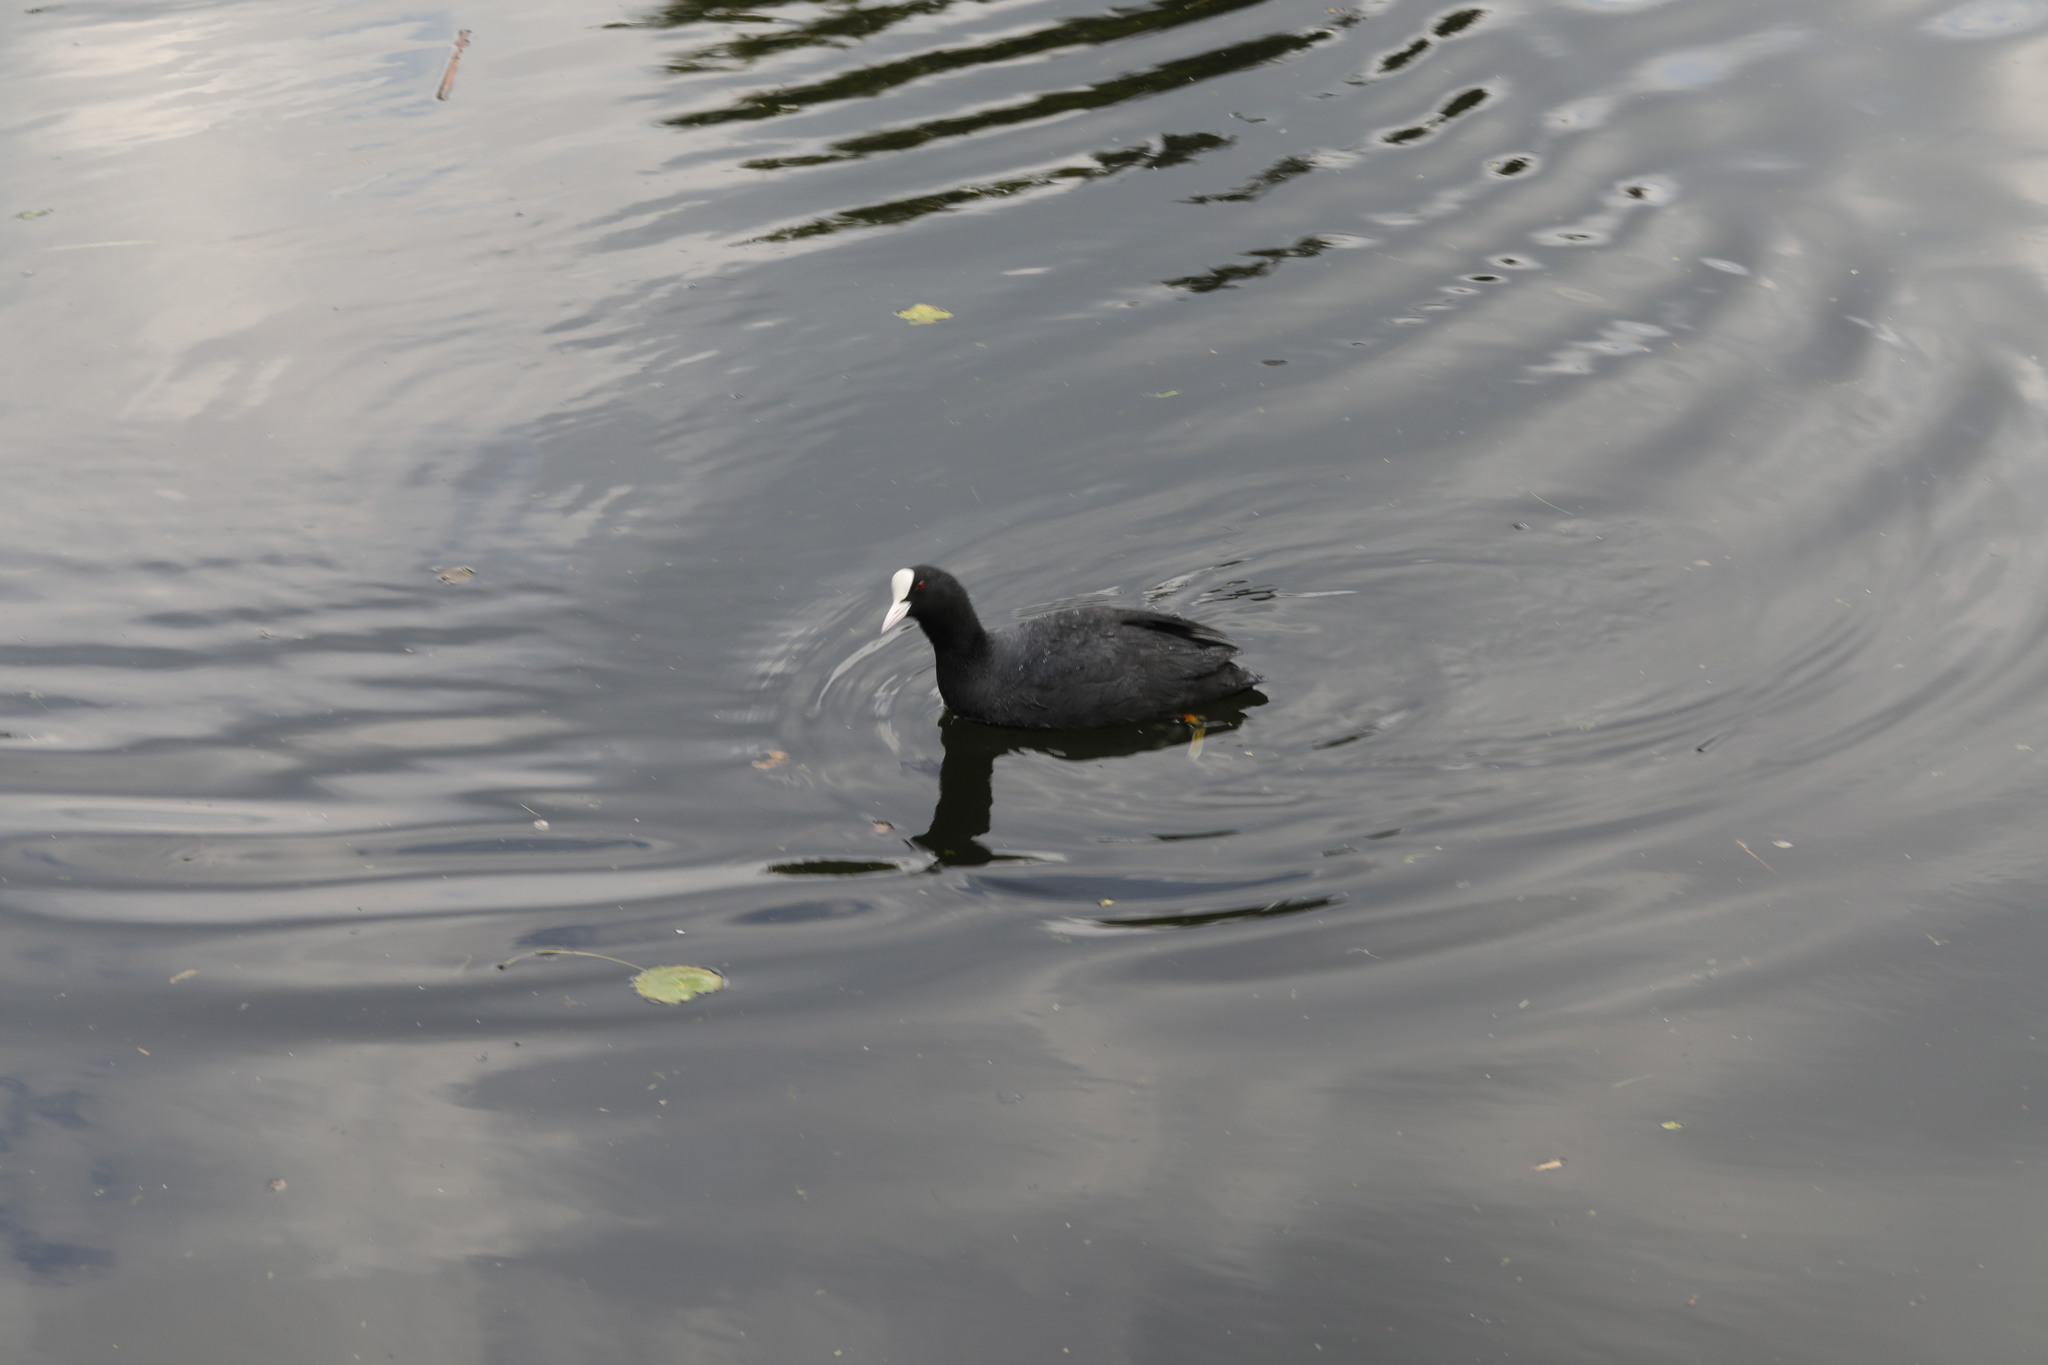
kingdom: Animalia
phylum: Chordata
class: Aves
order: Gruiformes
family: Rallidae
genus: Fulica
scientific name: Fulica atra
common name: Eurasian coot
